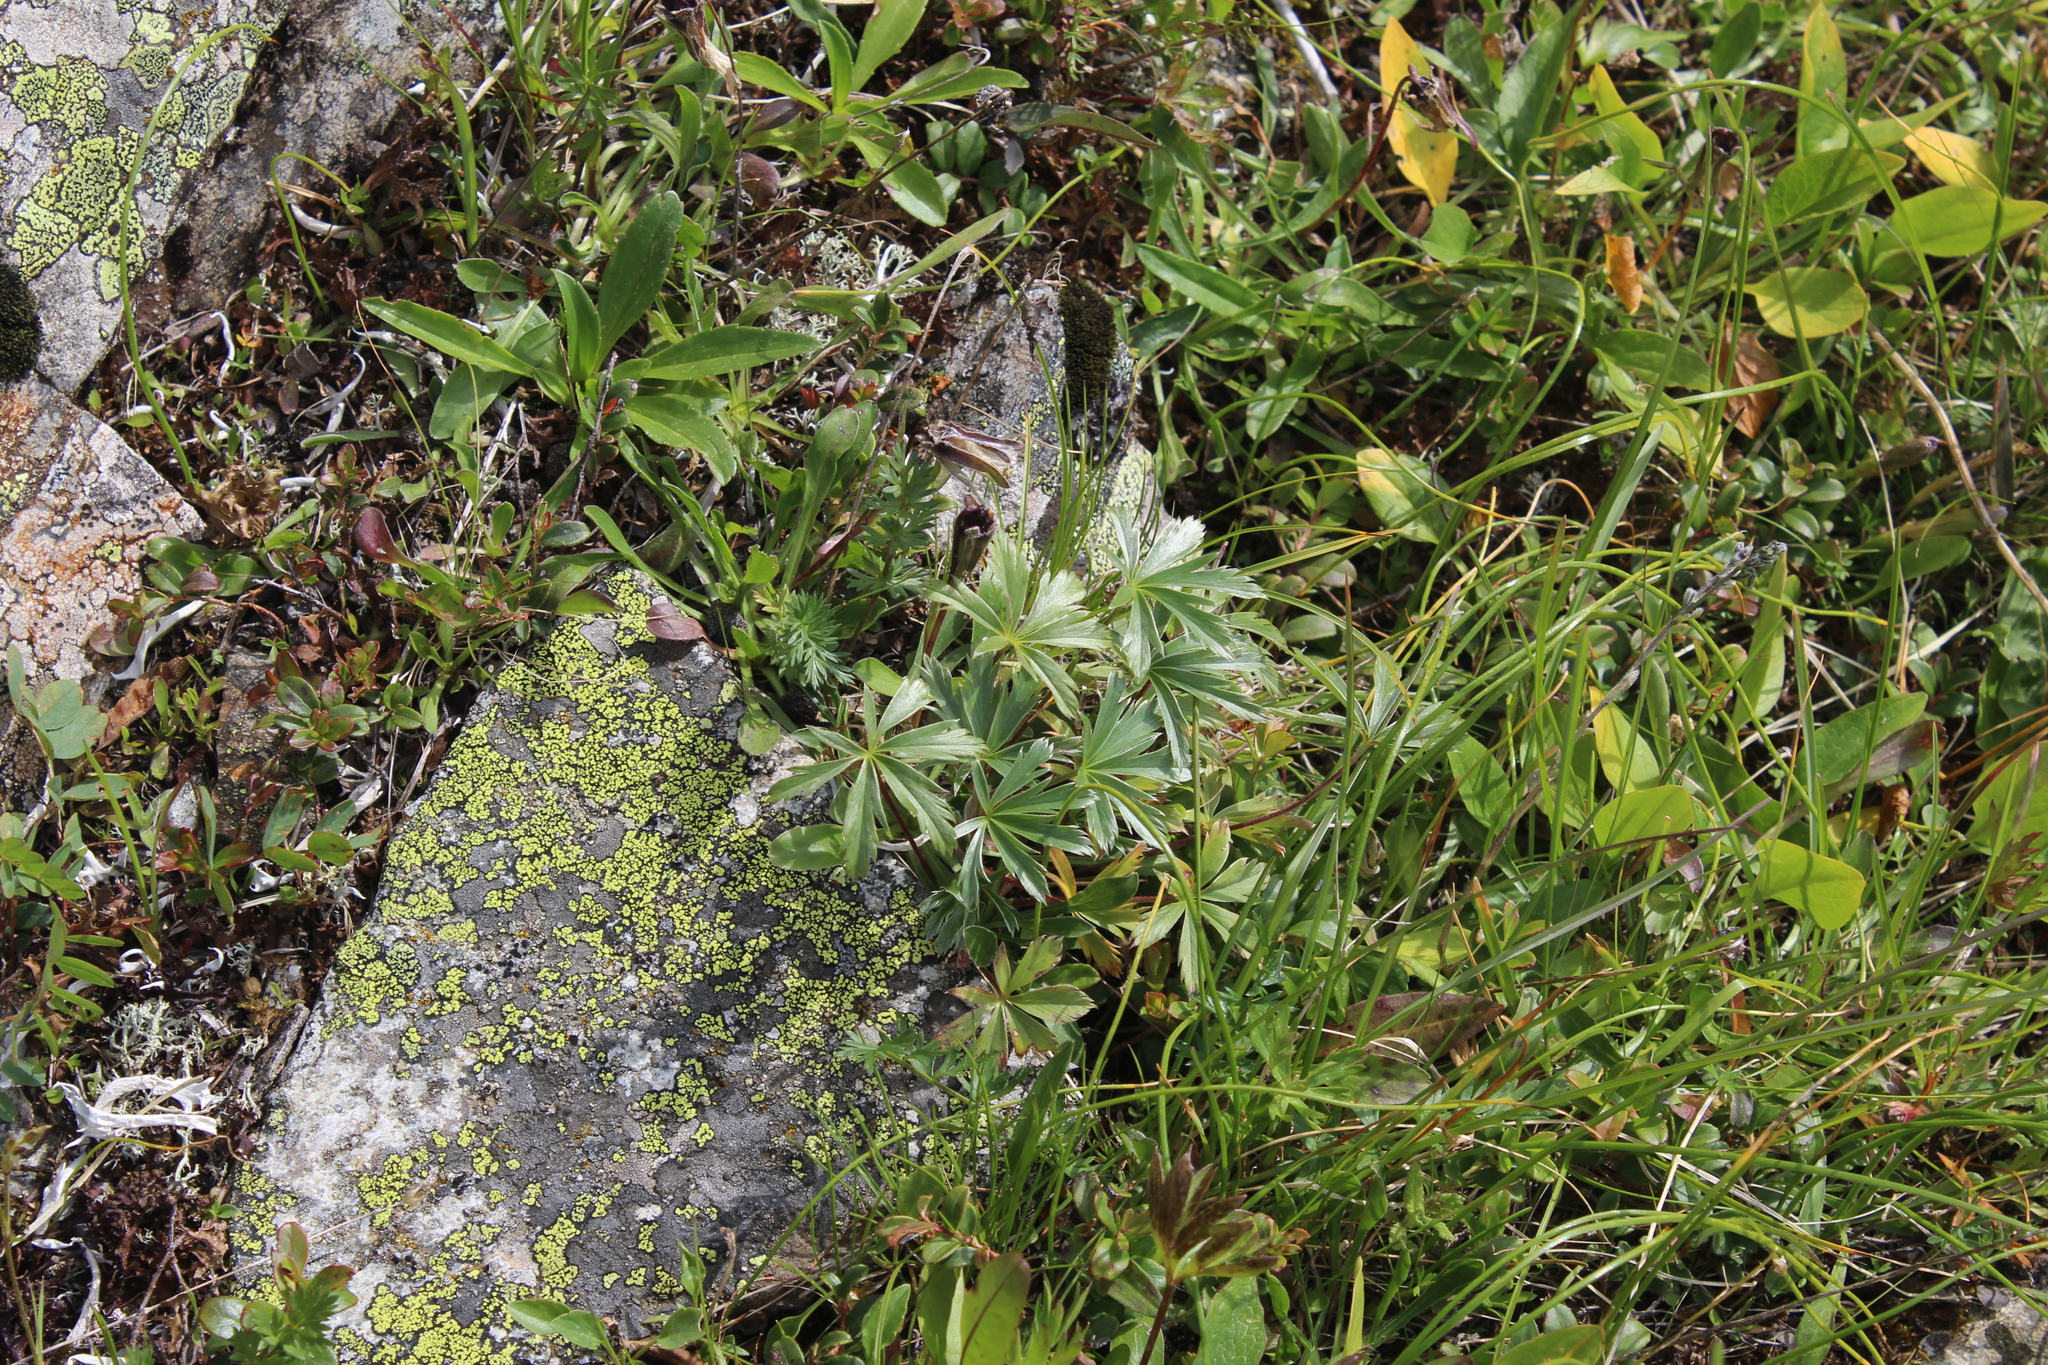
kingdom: Plantae
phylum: Tracheophyta
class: Magnoliopsida
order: Rosales
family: Rosaceae
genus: Alchemilla
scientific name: Alchemilla sericea
